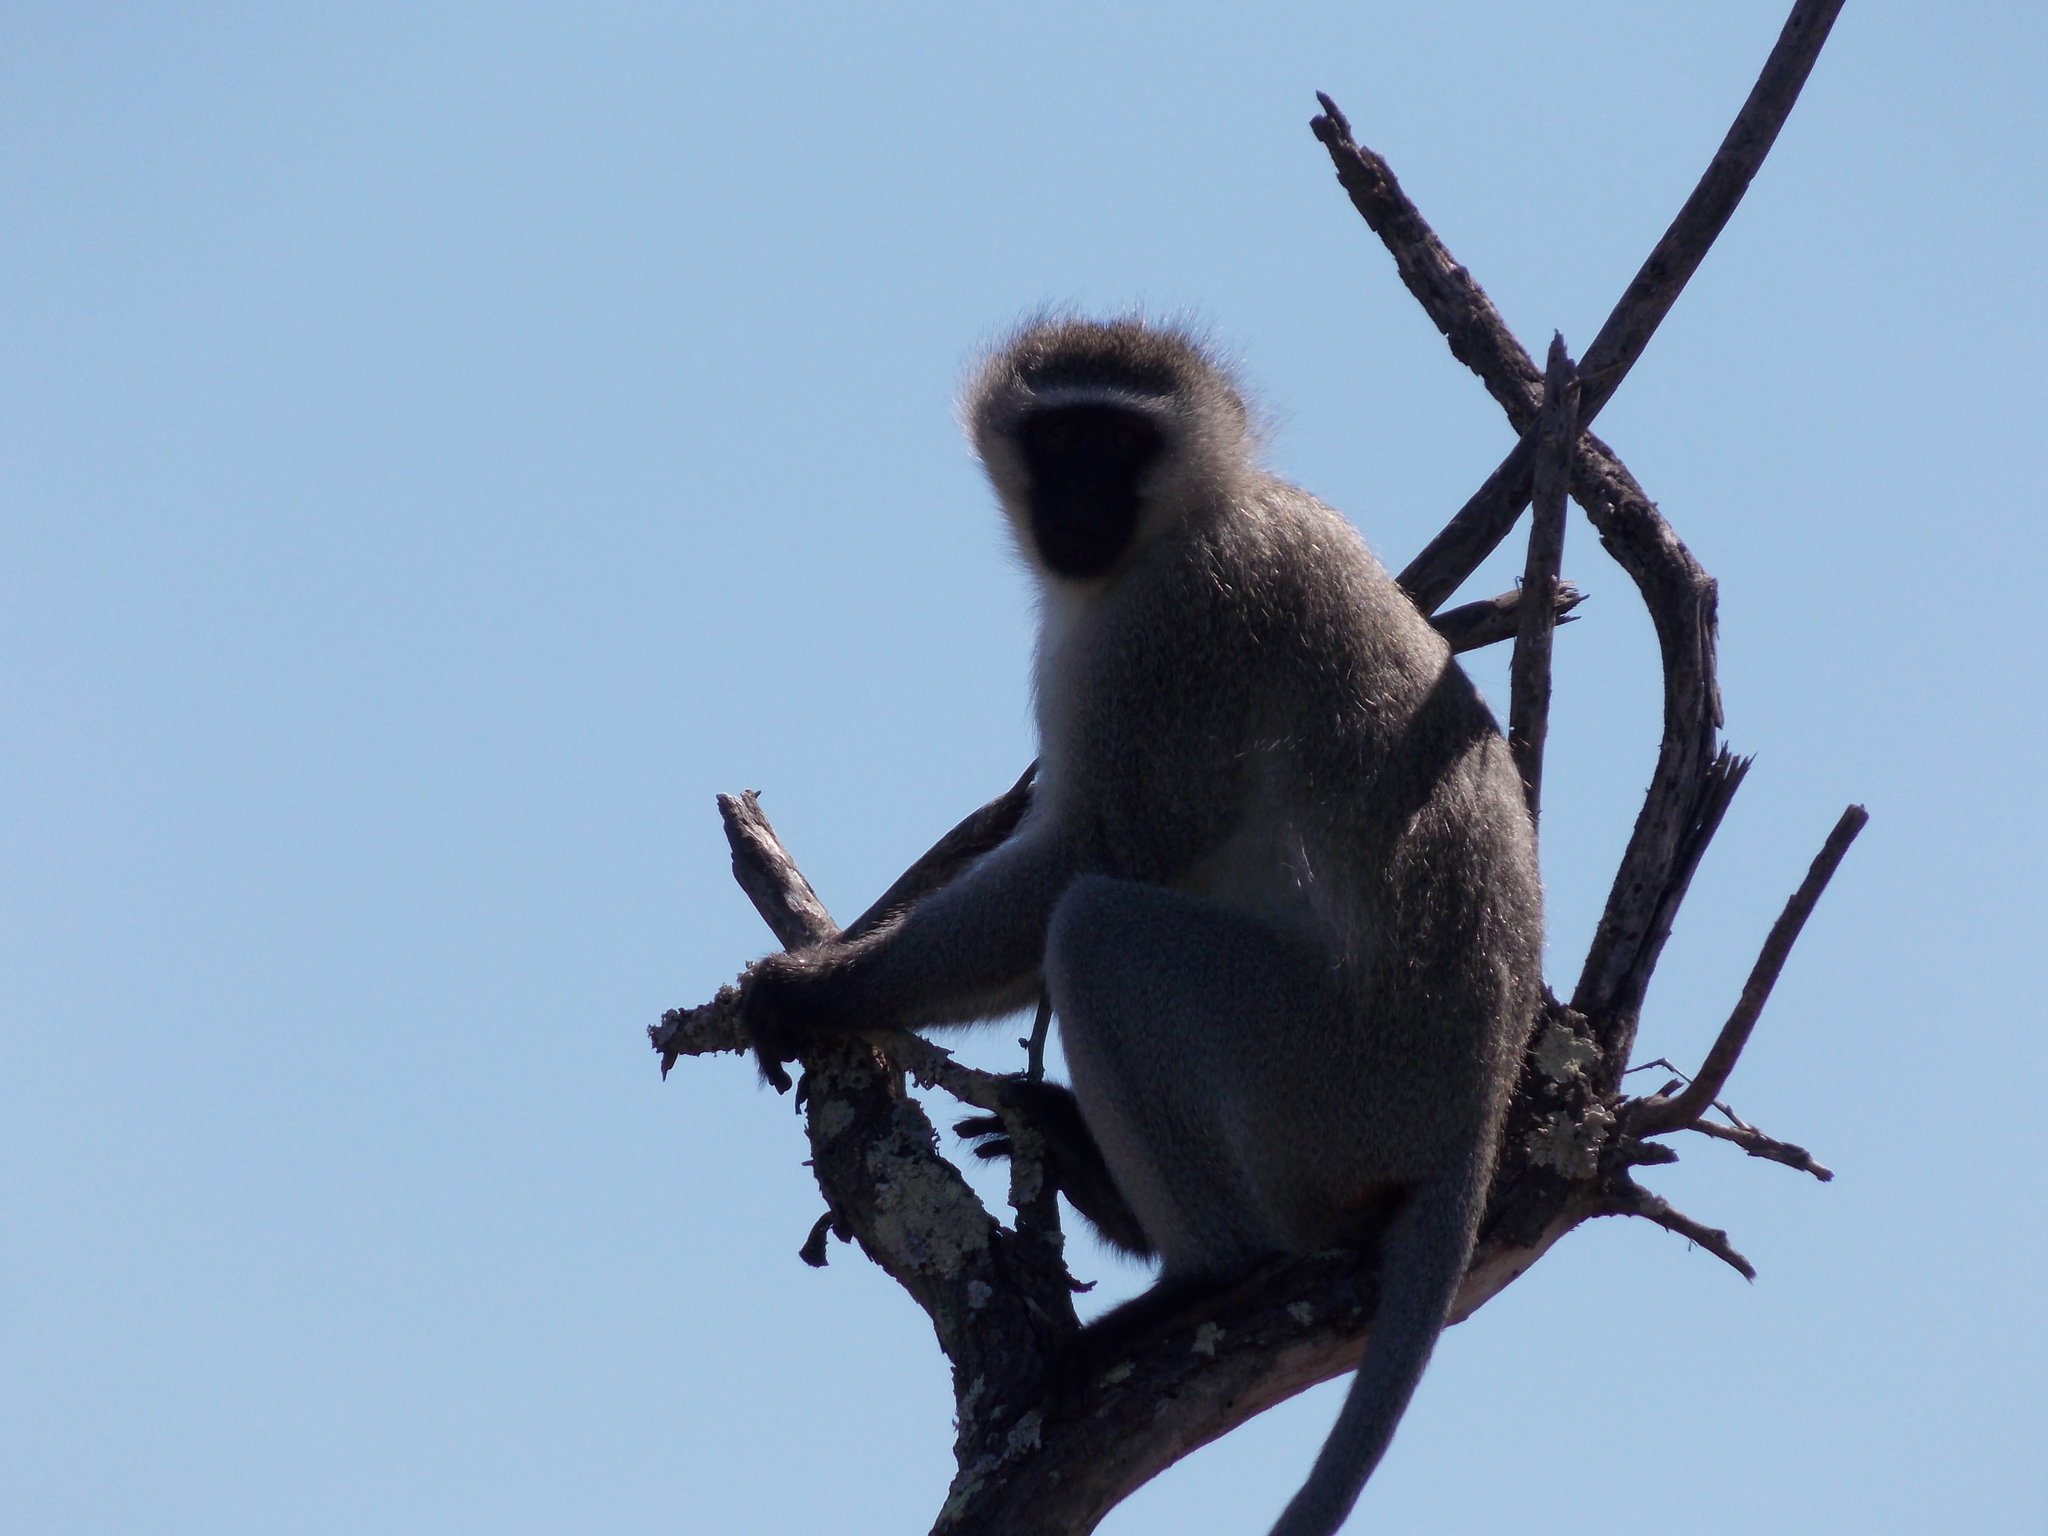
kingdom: Animalia
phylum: Chordata
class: Mammalia
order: Primates
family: Cercopithecidae
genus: Chlorocebus
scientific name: Chlorocebus pygerythrus
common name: Vervet monkey
